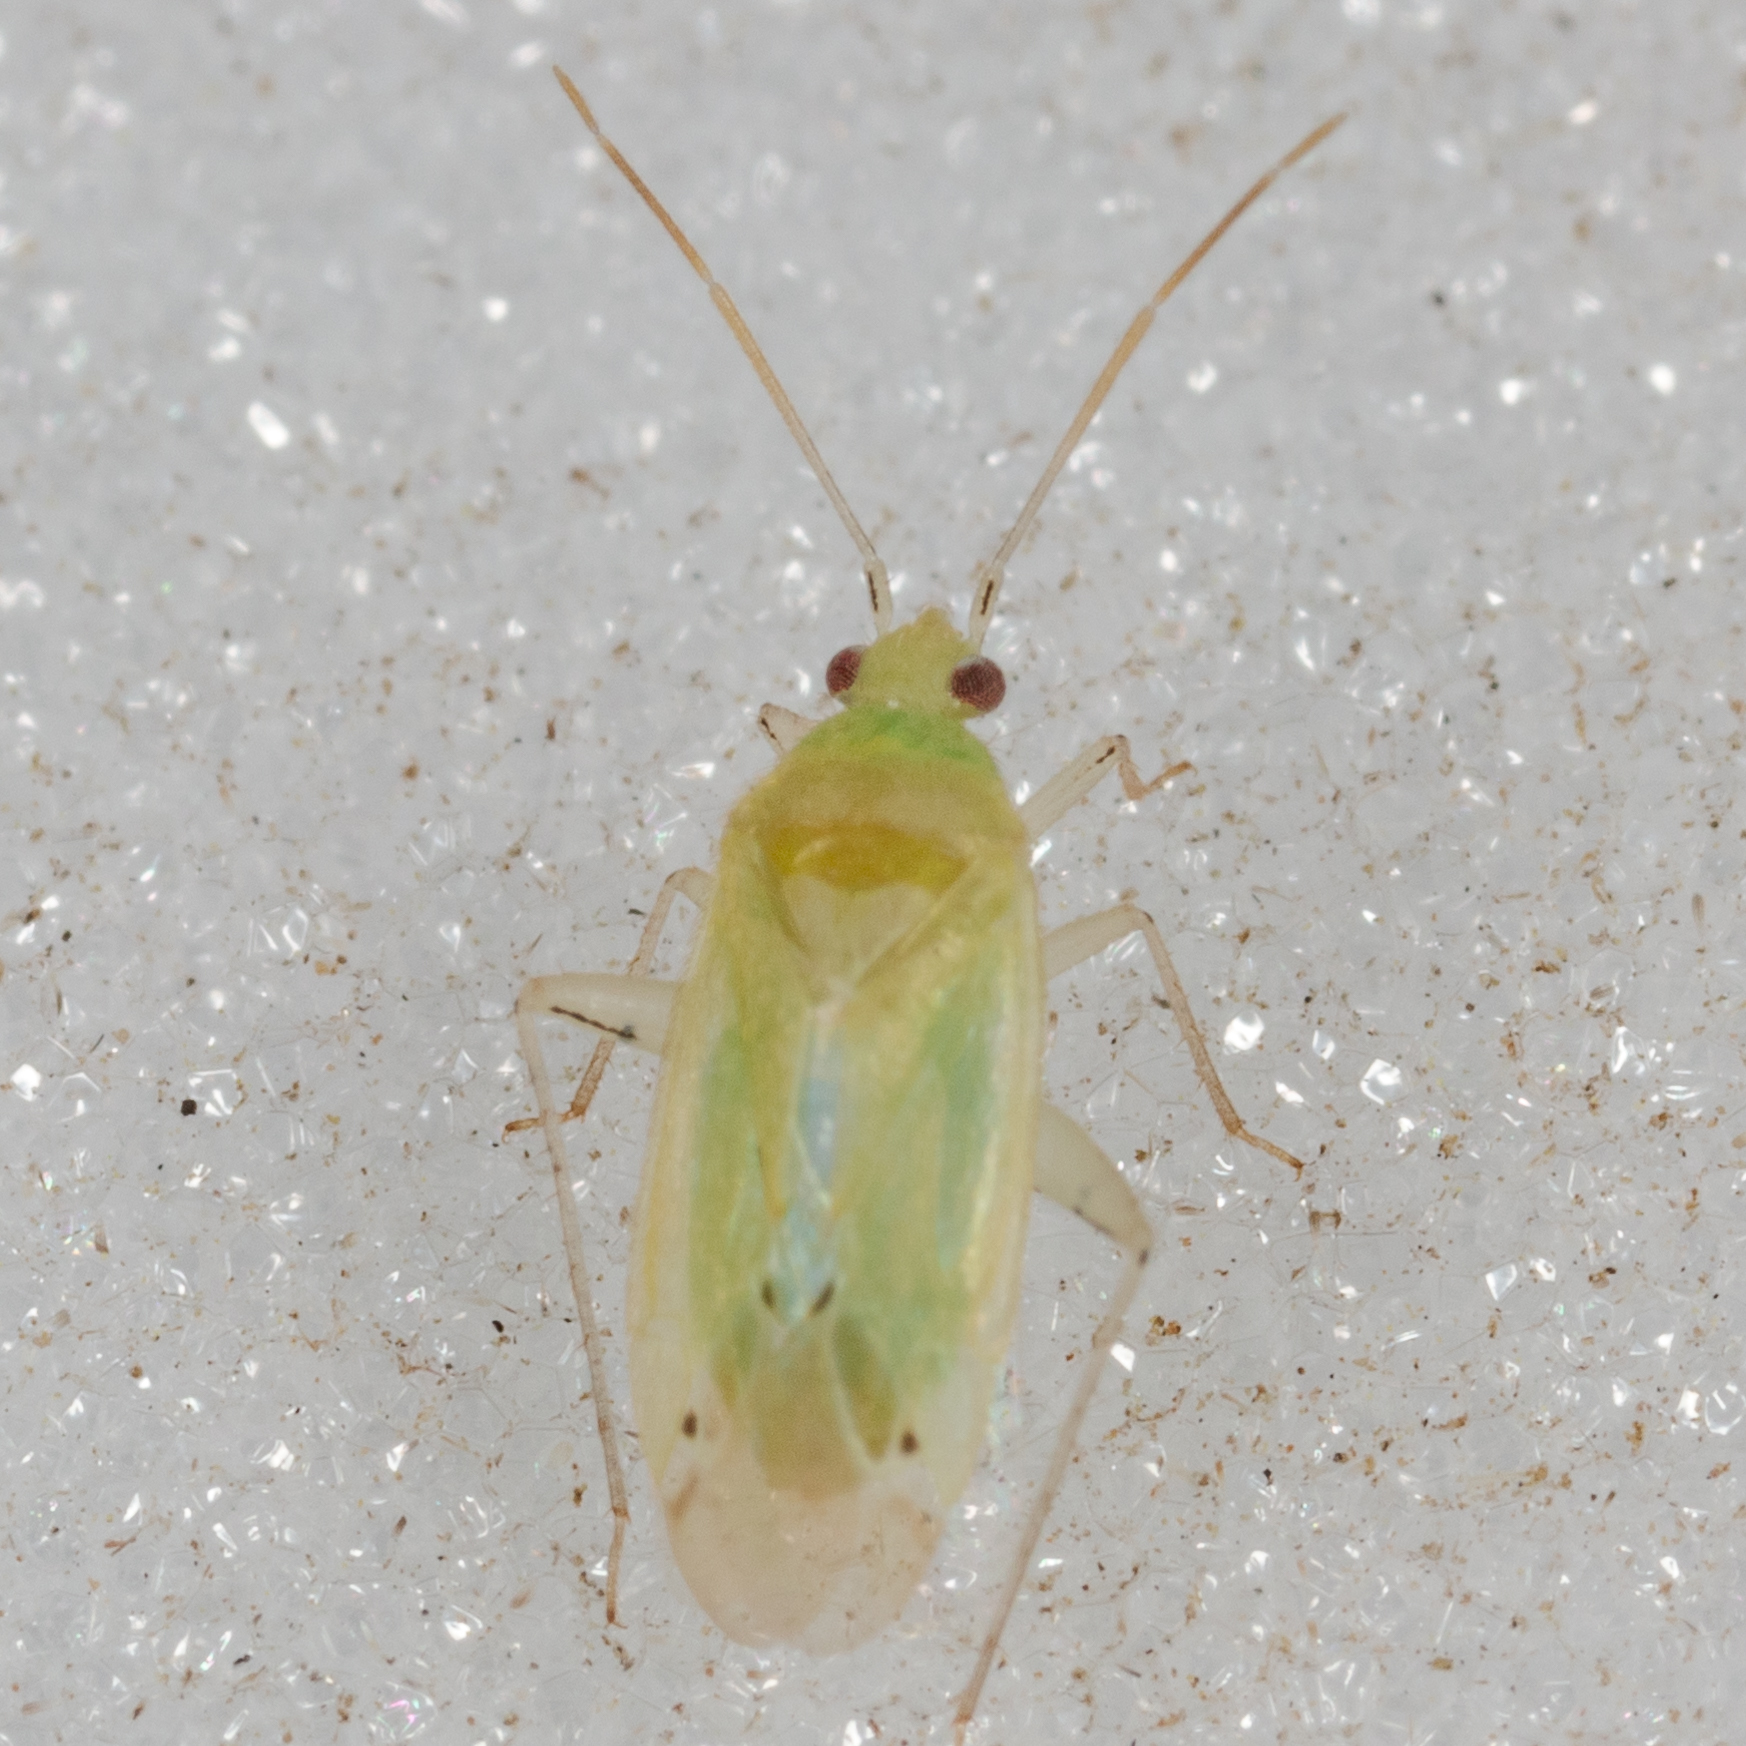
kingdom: Animalia
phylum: Arthropoda
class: Insecta
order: Hemiptera
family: Miridae
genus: Americodema
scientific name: Americodema nigrolineatum
